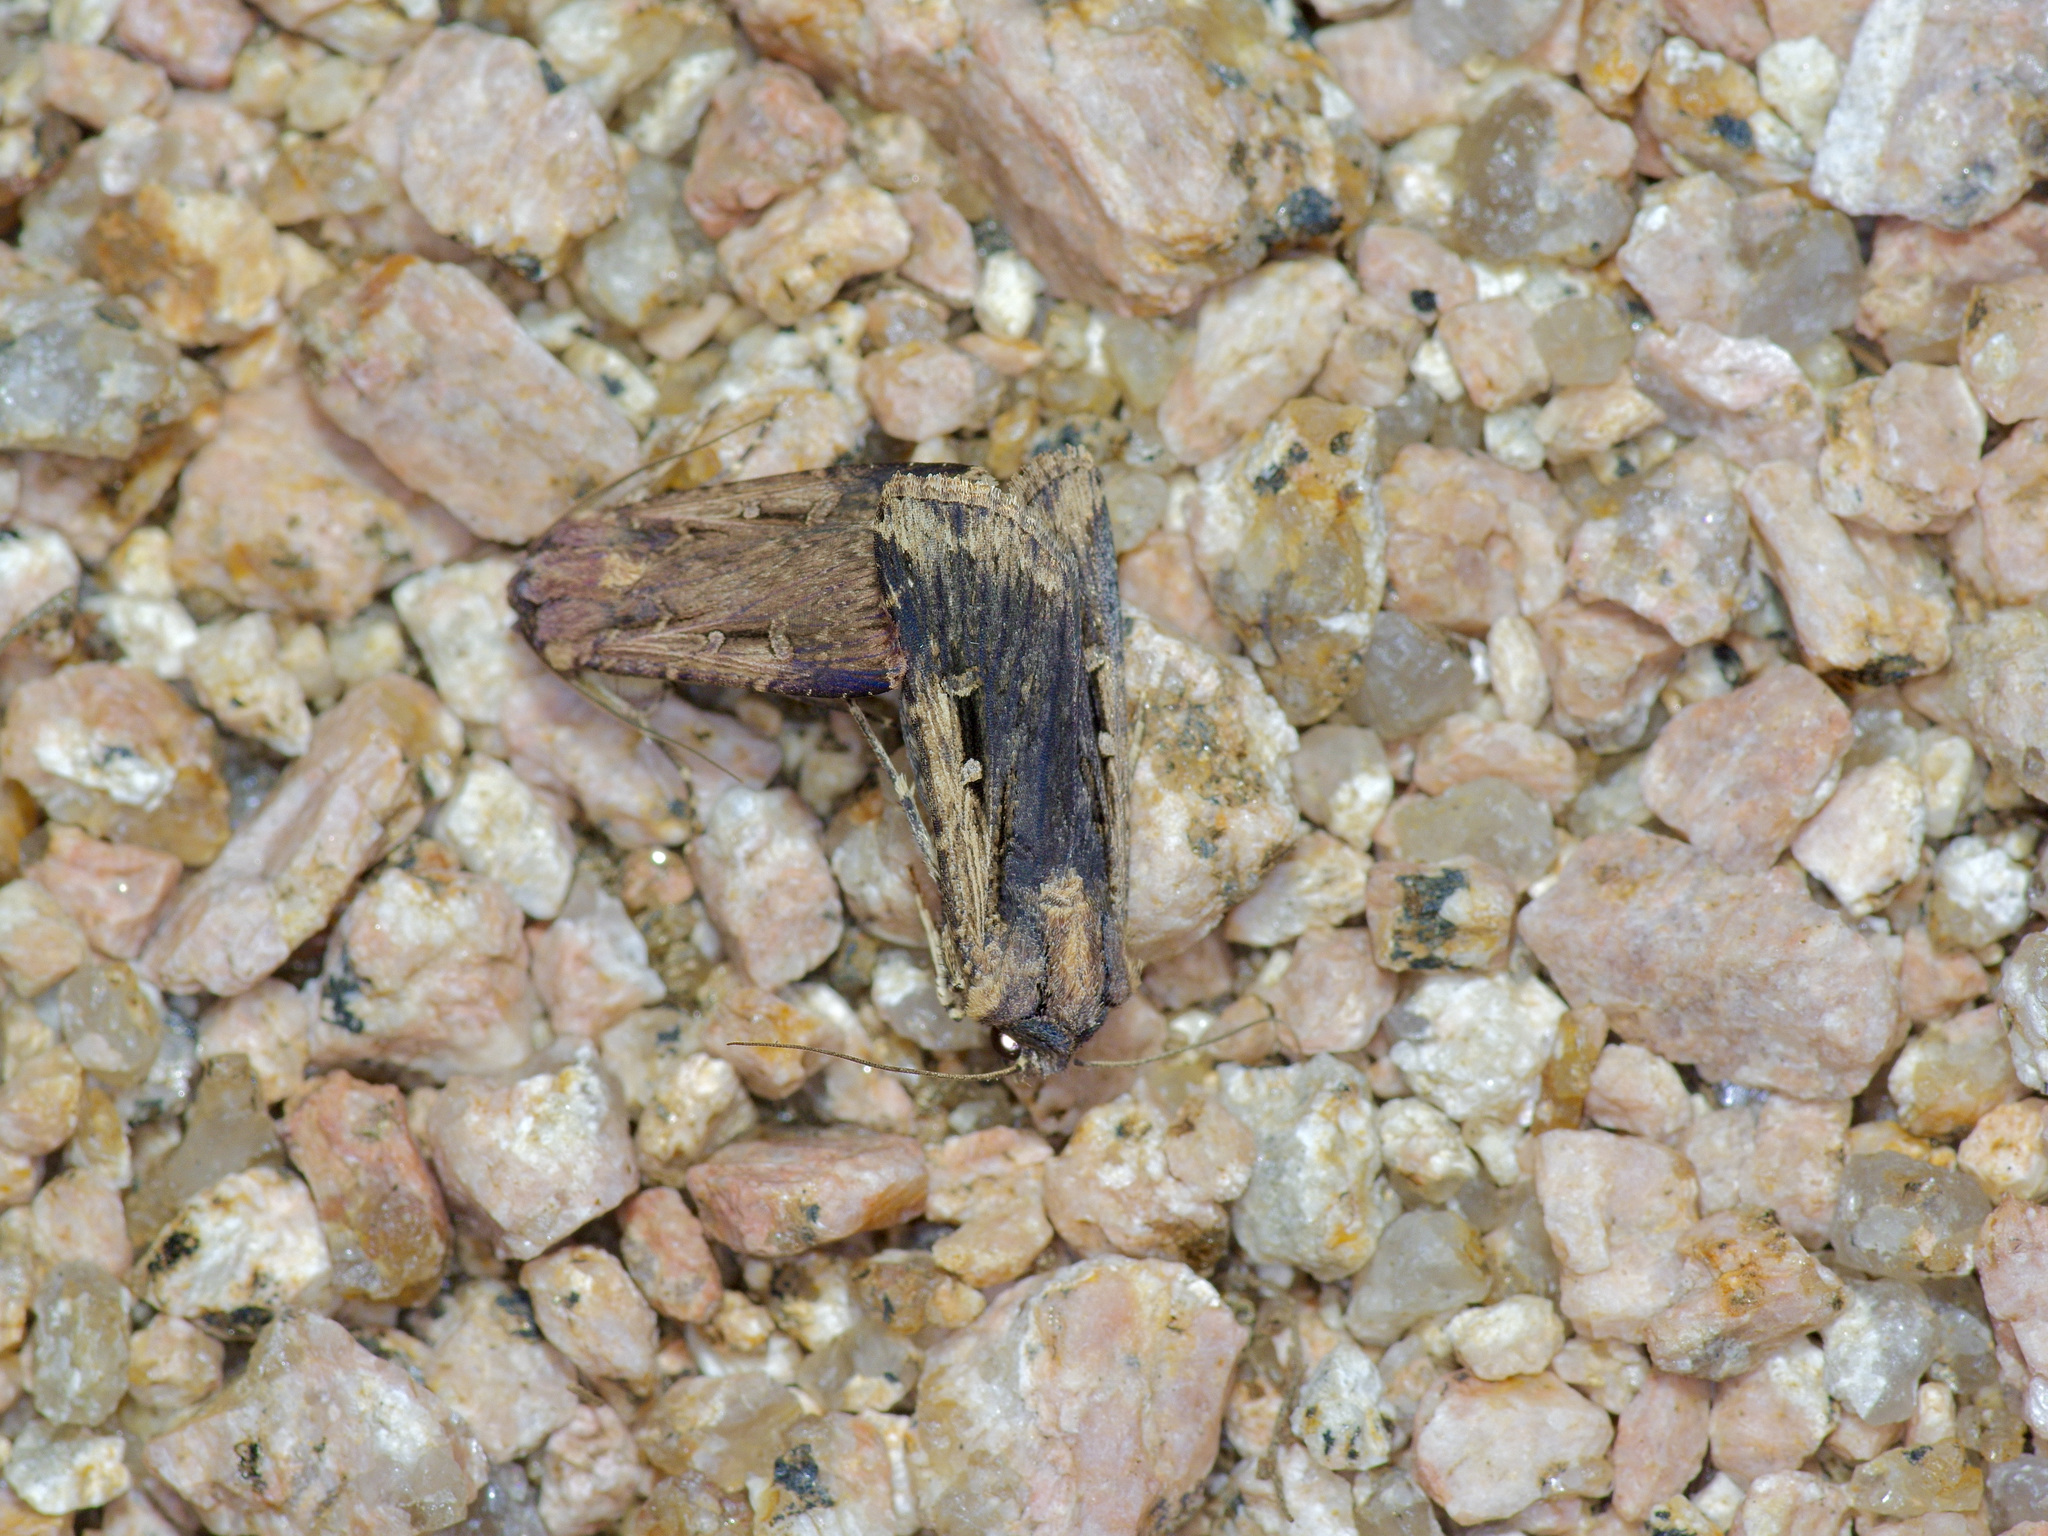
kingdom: Animalia
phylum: Arthropoda
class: Insecta
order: Lepidoptera
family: Noctuidae
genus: Feltia
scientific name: Feltia subterranea
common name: Granulate cutworm
